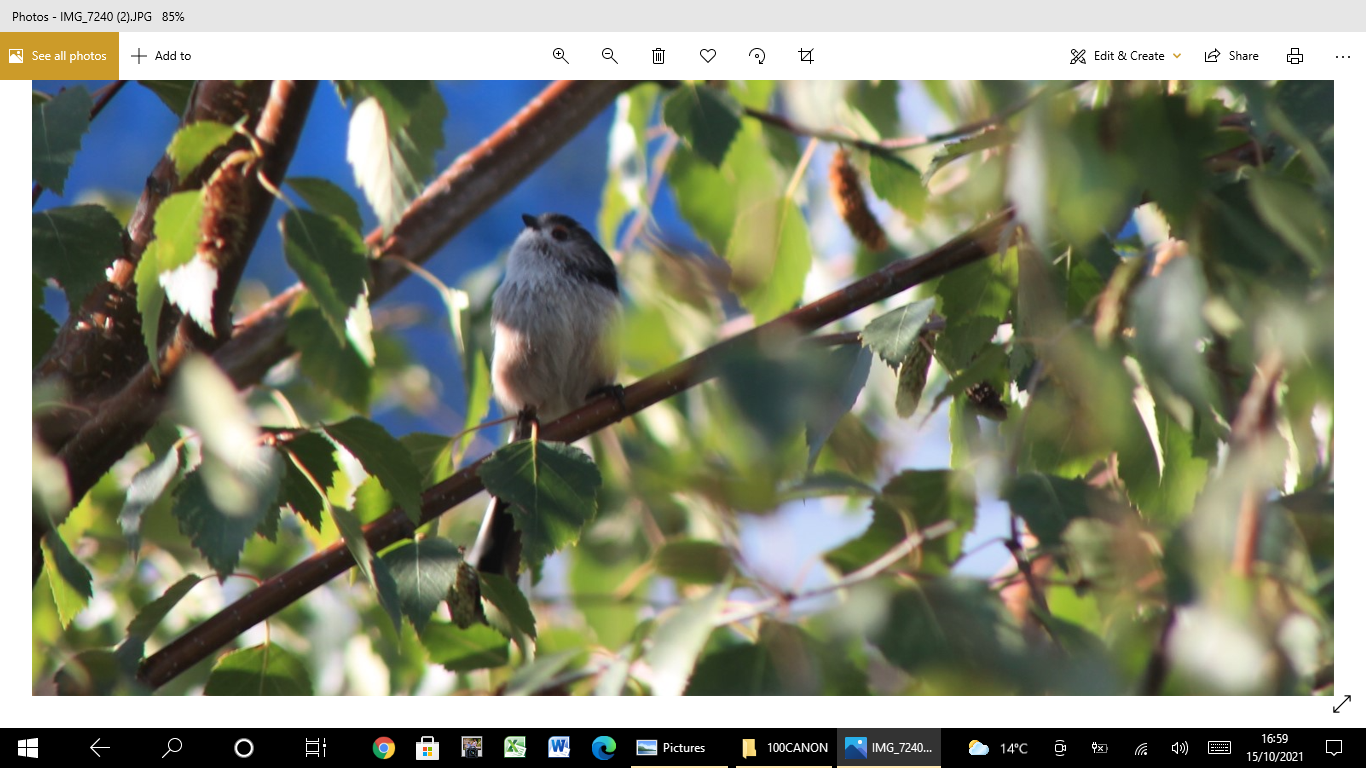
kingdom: Animalia
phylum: Chordata
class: Aves
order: Passeriformes
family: Aegithalidae
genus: Aegithalos
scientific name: Aegithalos caudatus
